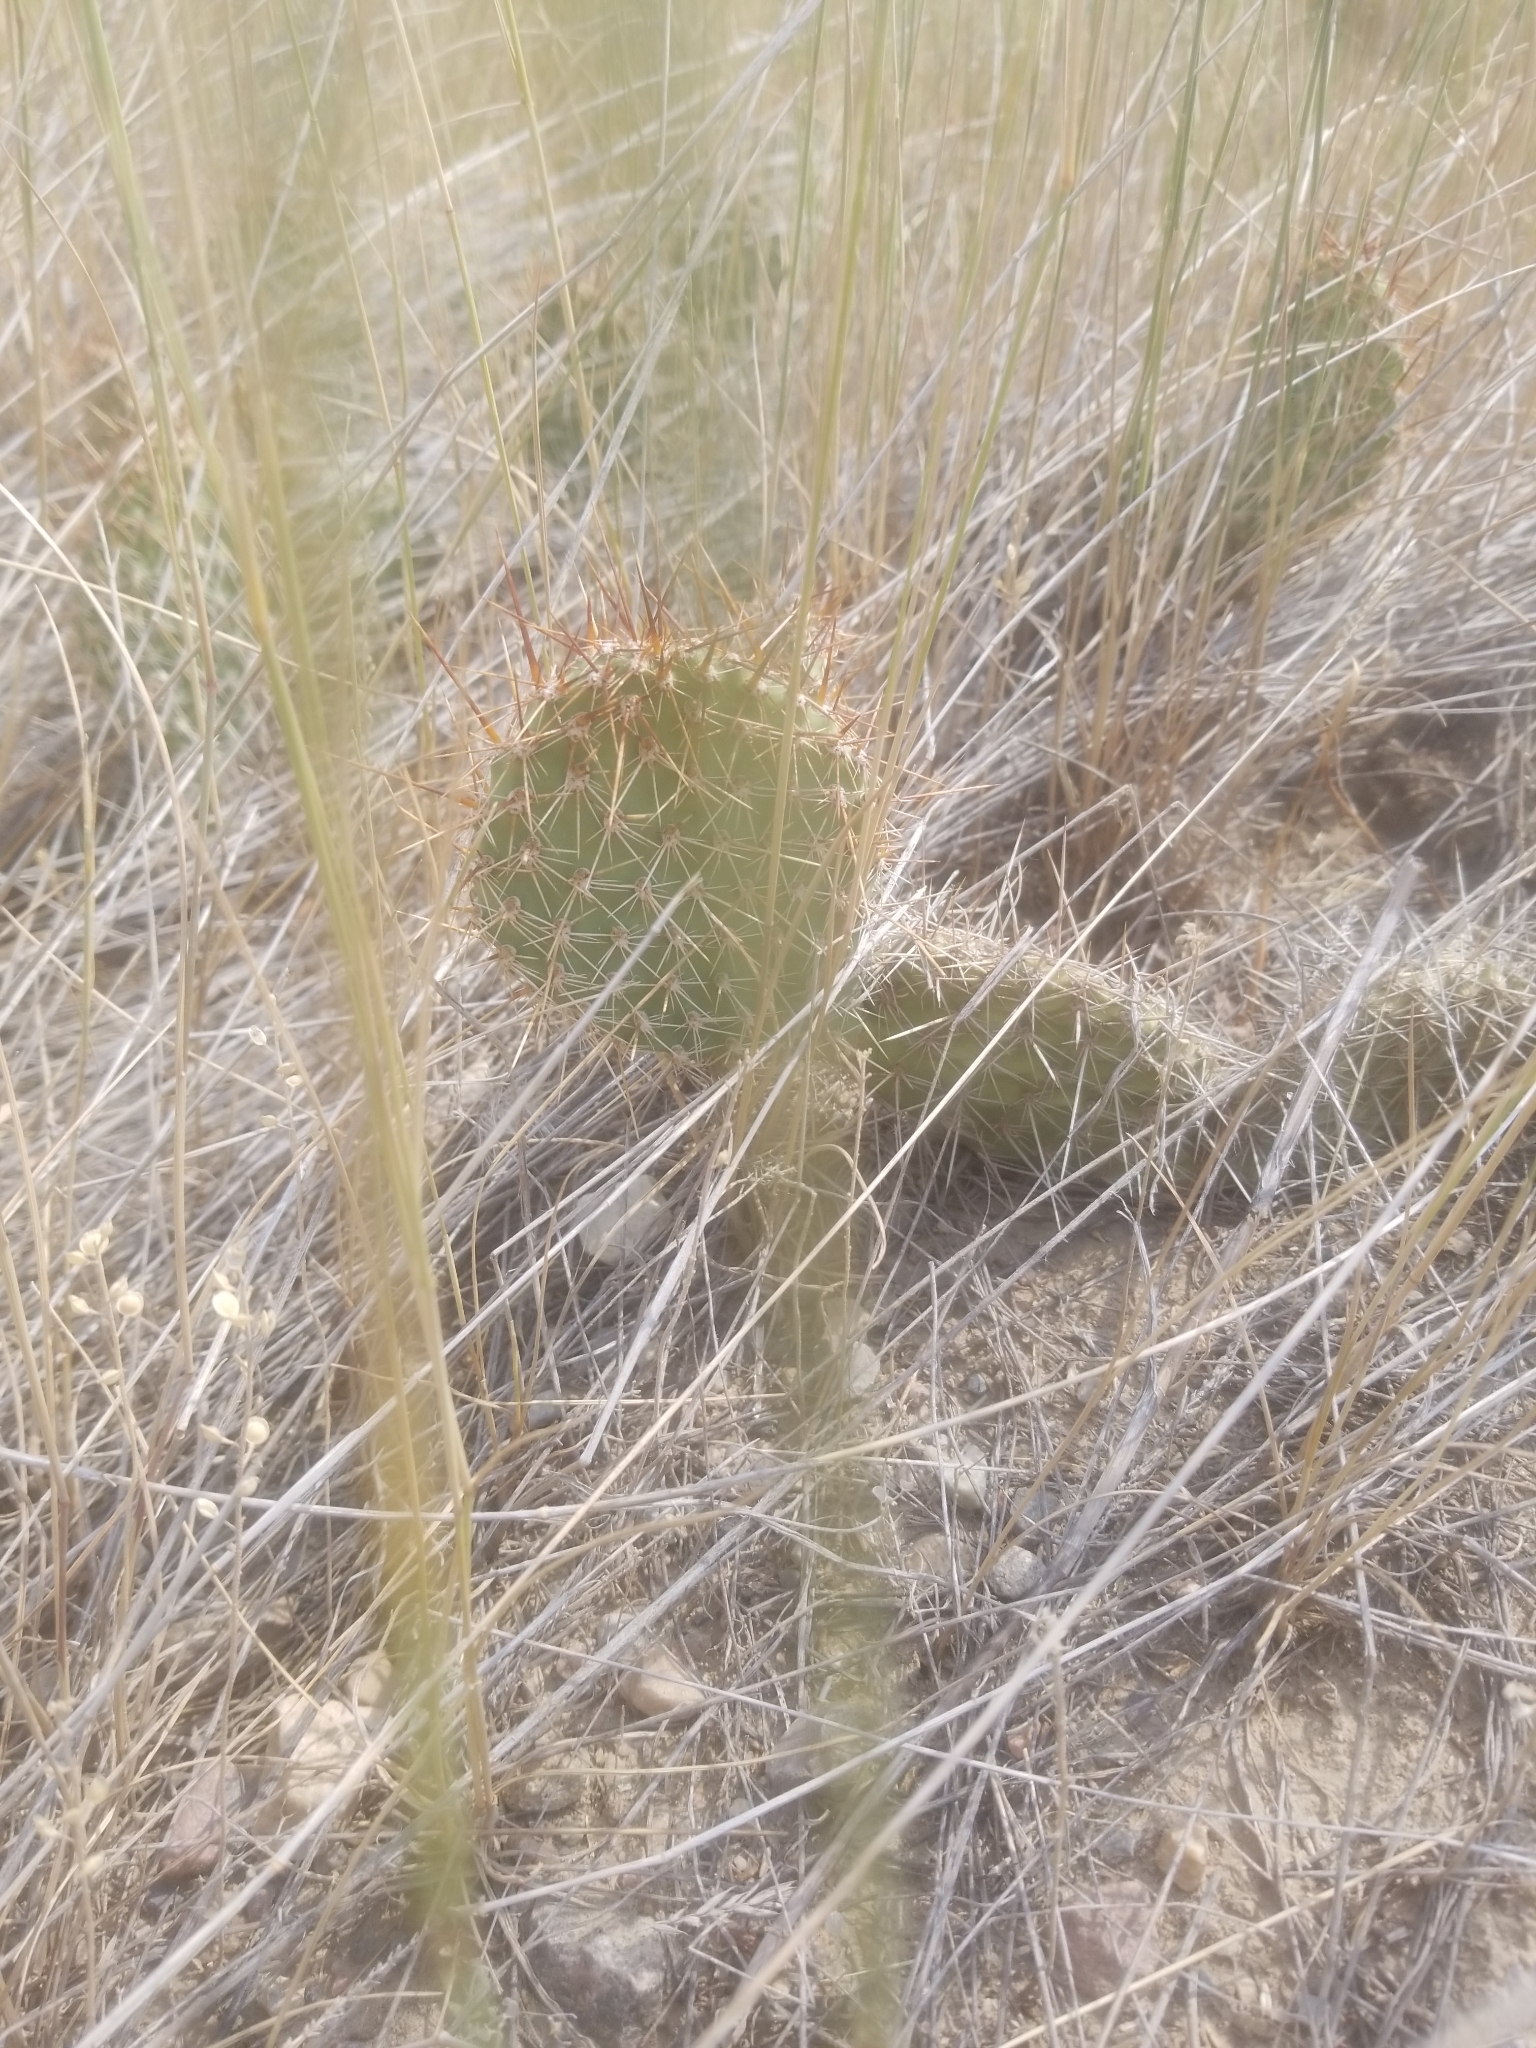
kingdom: Plantae
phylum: Tracheophyta
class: Magnoliopsida
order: Caryophyllales
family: Cactaceae
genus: Opuntia
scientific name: Opuntia polyacantha
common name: Plains prickly-pear
